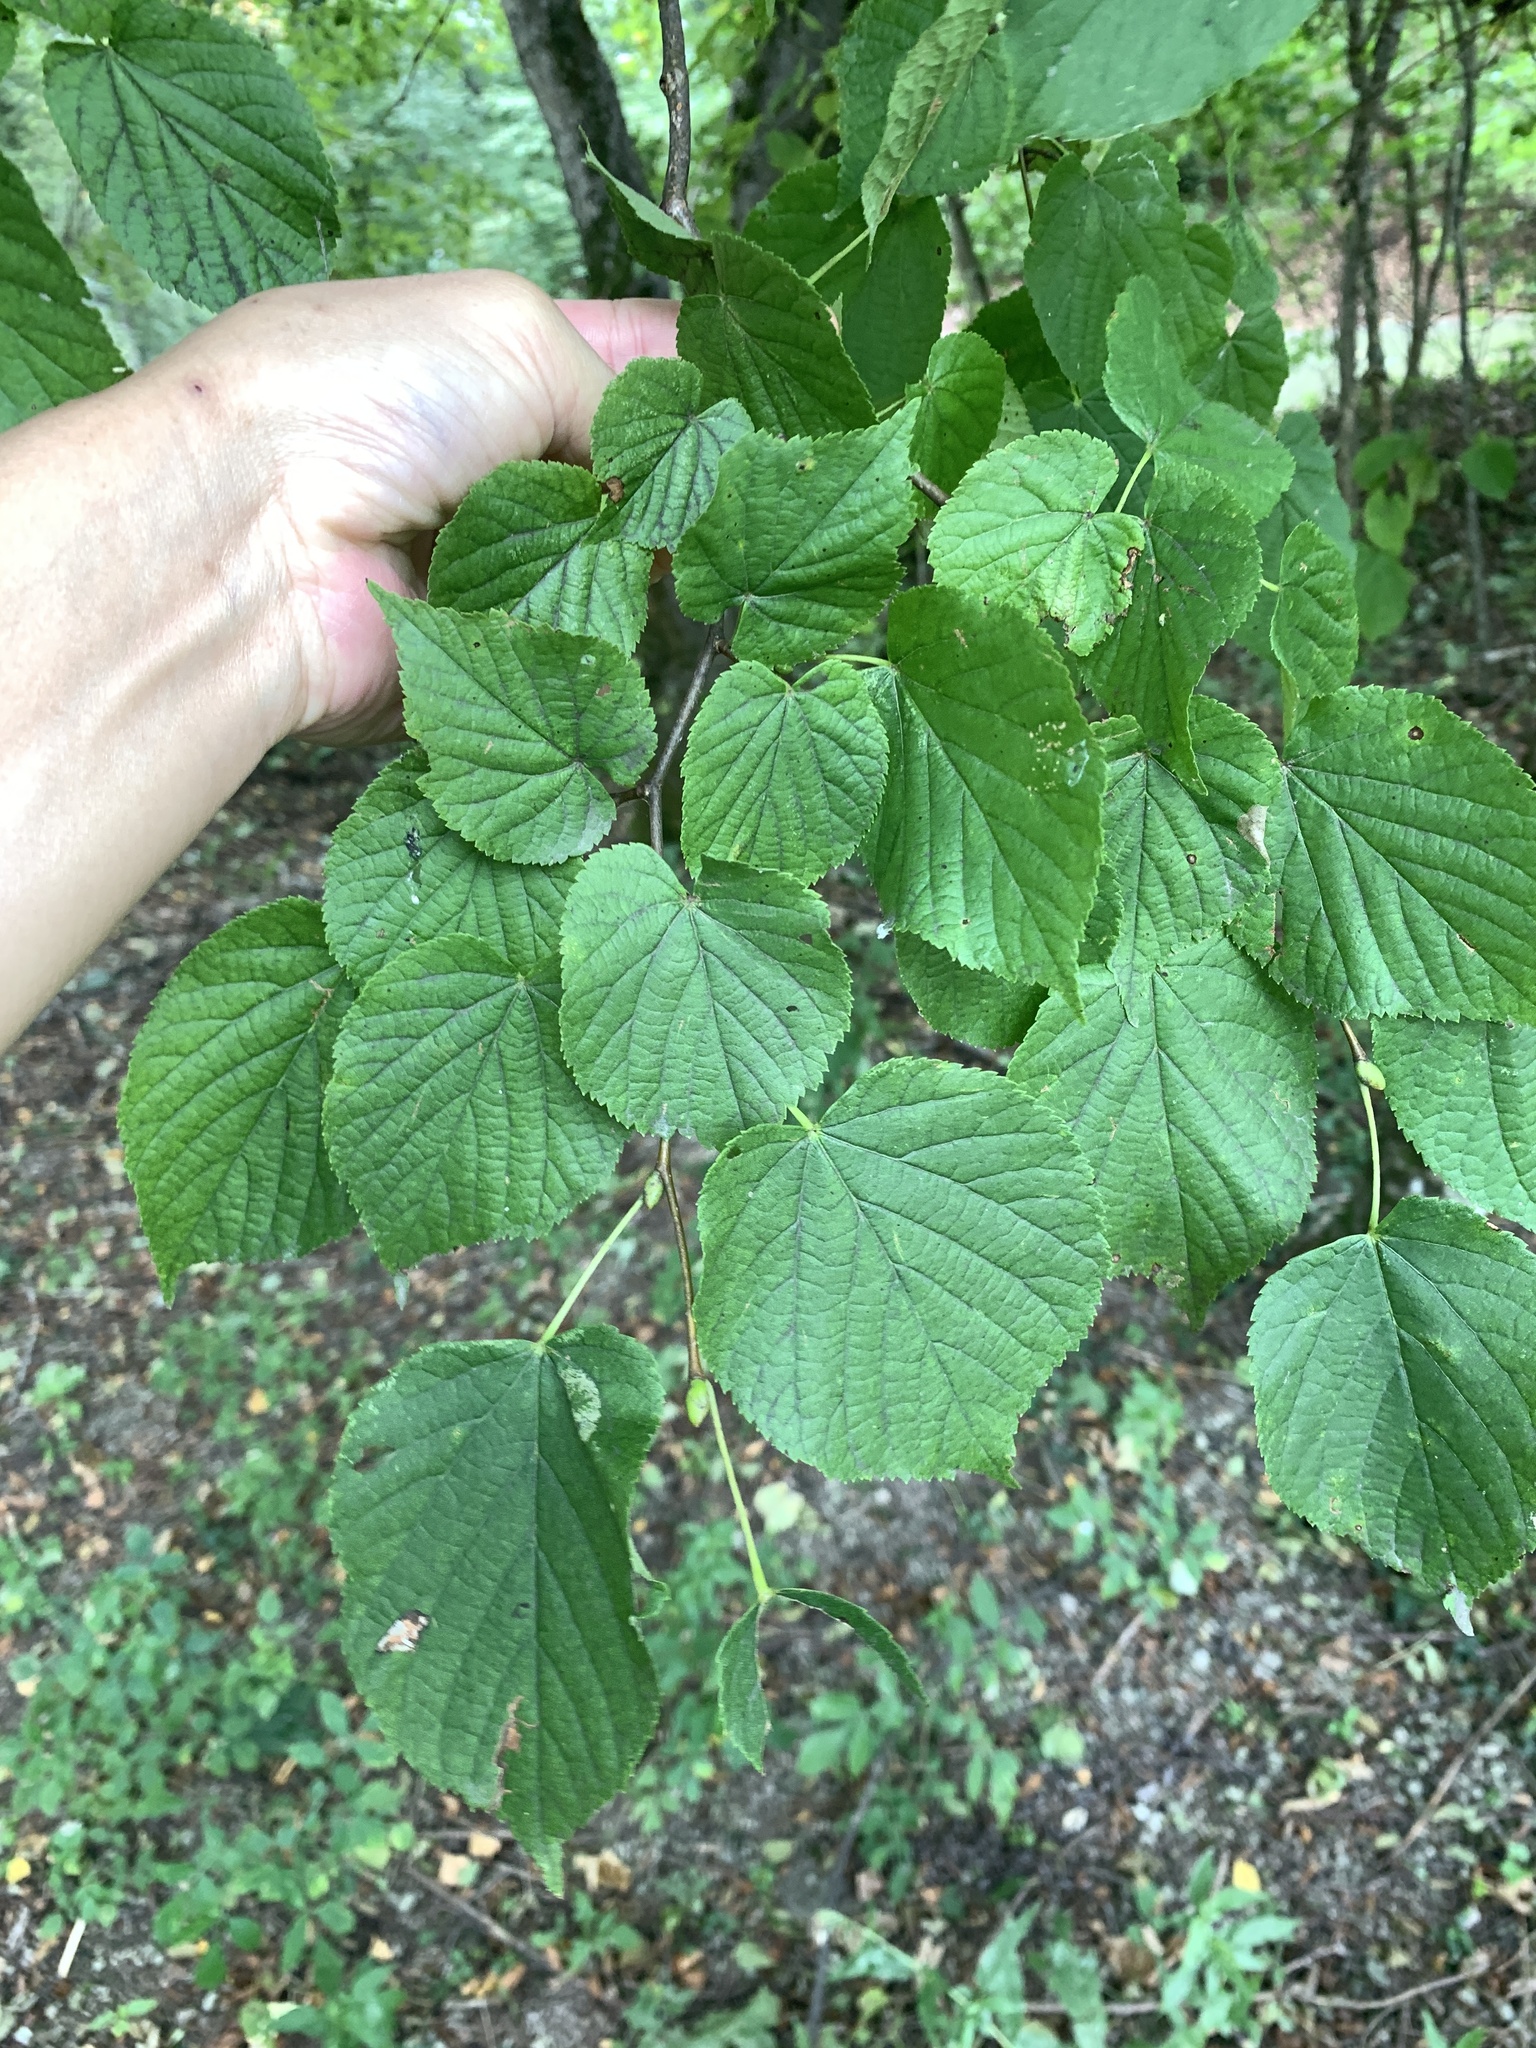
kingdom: Plantae
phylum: Tracheophyta
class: Magnoliopsida
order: Malvales
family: Malvaceae
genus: Tilia
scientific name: Tilia cordata
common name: Small-leaved lime
